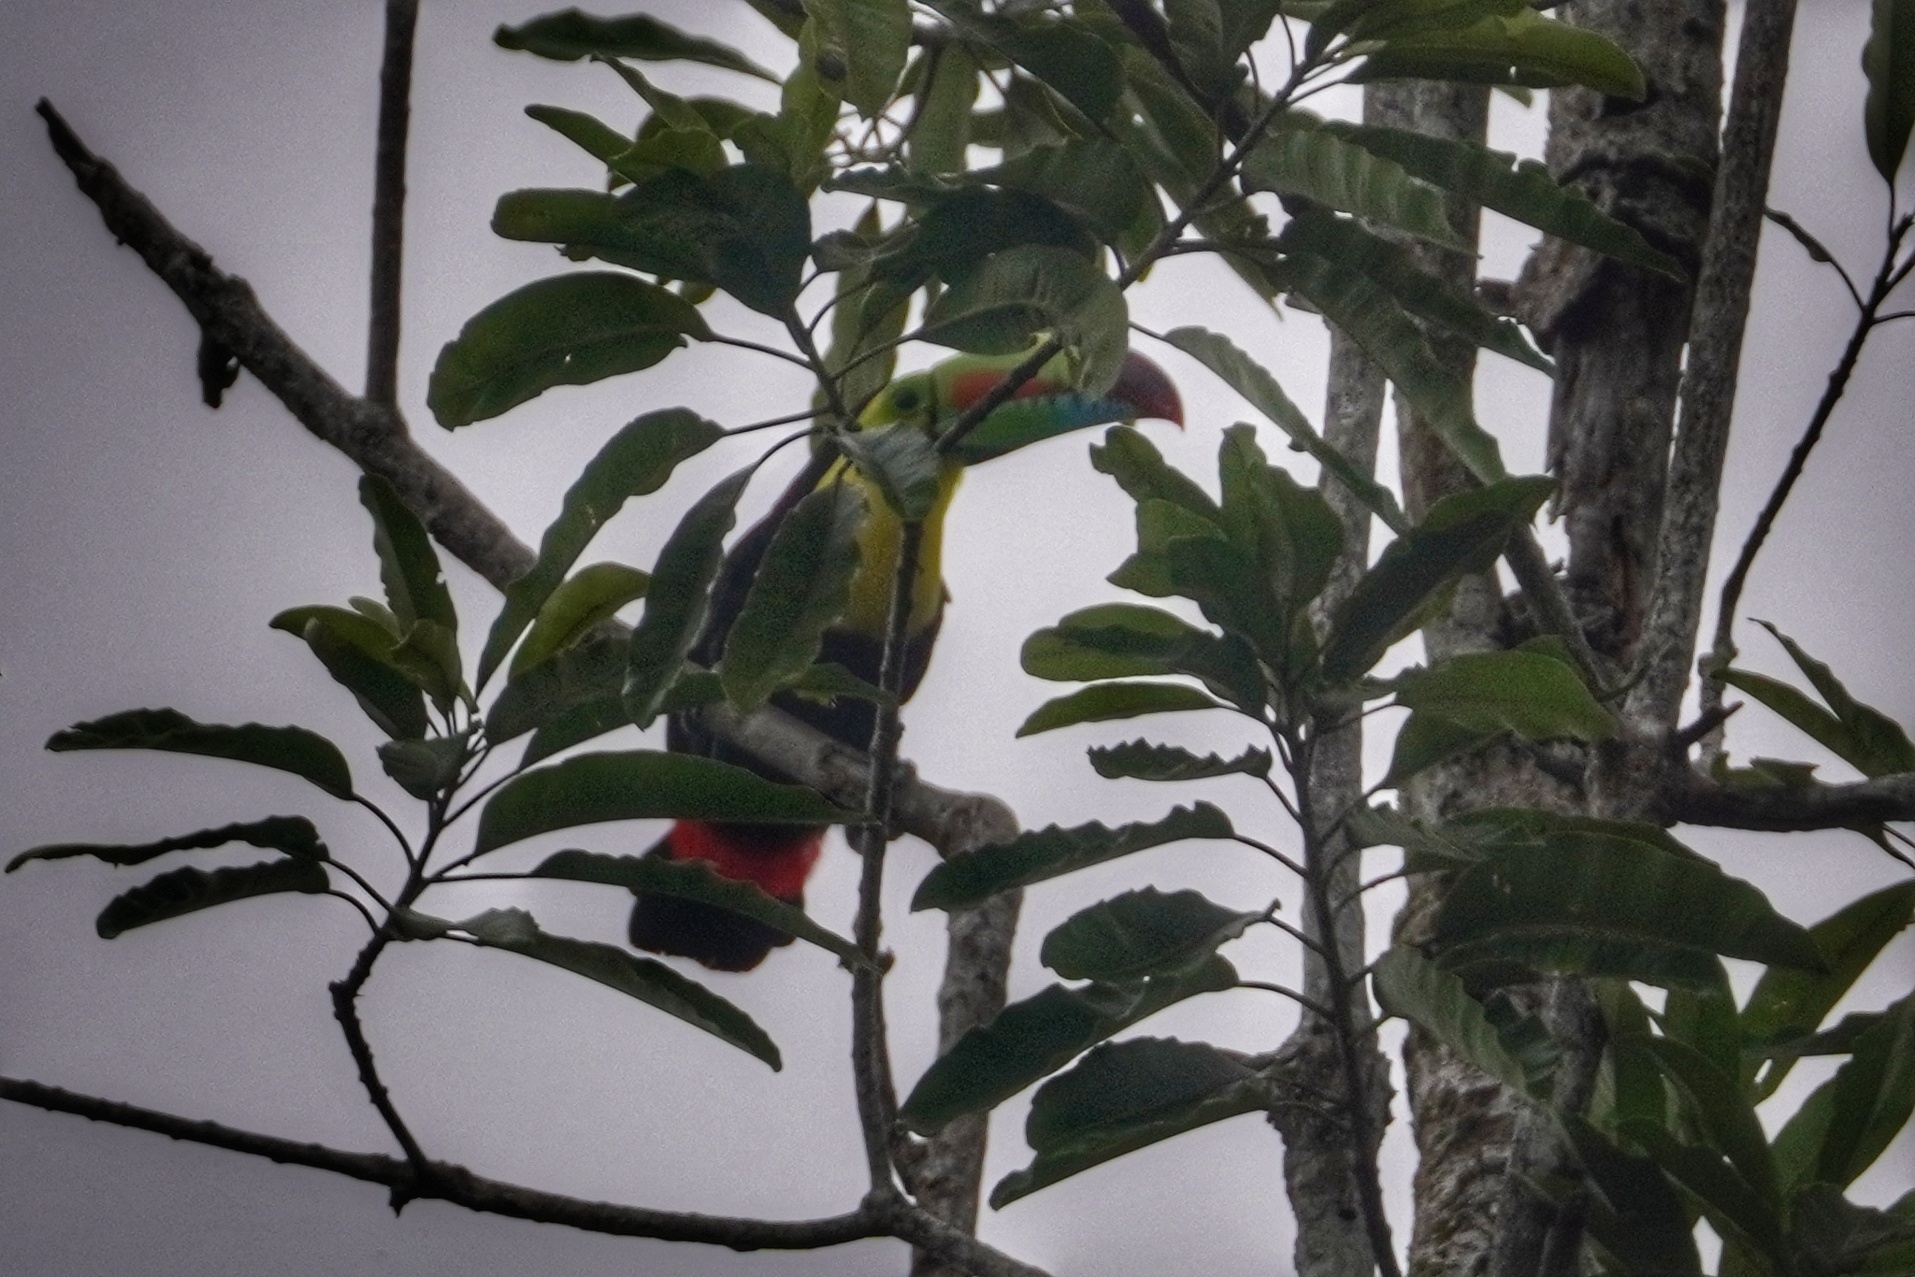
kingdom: Animalia
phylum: Chordata
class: Aves
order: Piciformes
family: Ramphastidae
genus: Ramphastos
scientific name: Ramphastos sulfuratus
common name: Keel-billed toucan
